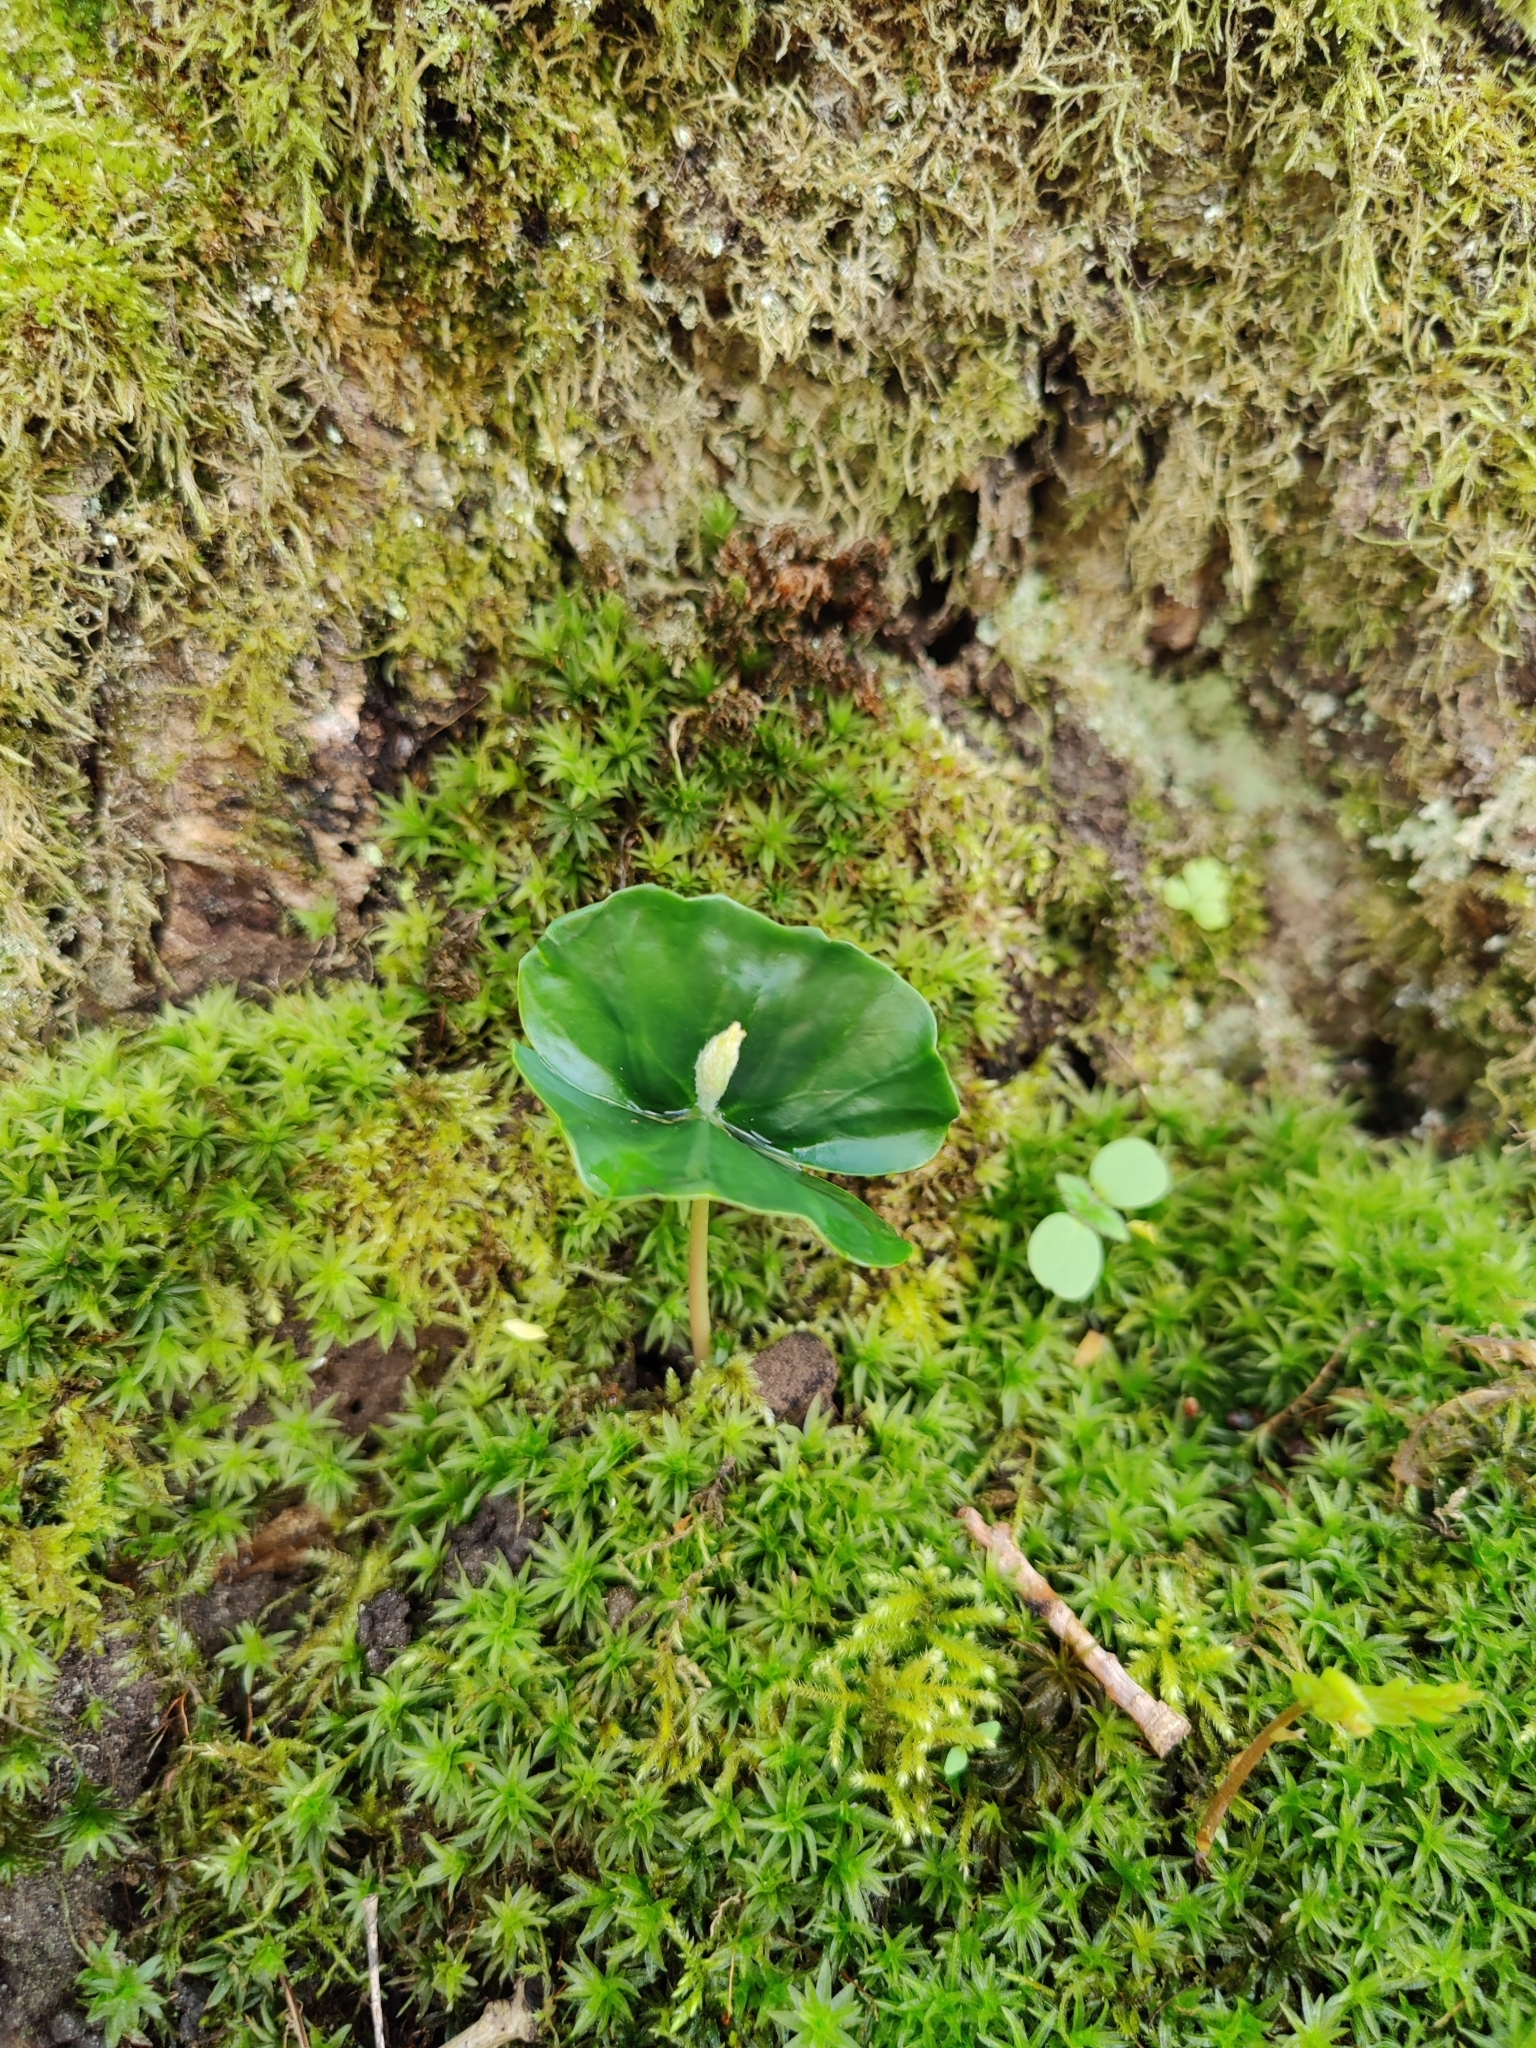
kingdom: Plantae
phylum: Tracheophyta
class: Magnoliopsida
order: Fagales
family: Fagaceae
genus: Fagus
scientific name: Fagus sylvatica
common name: Beech
